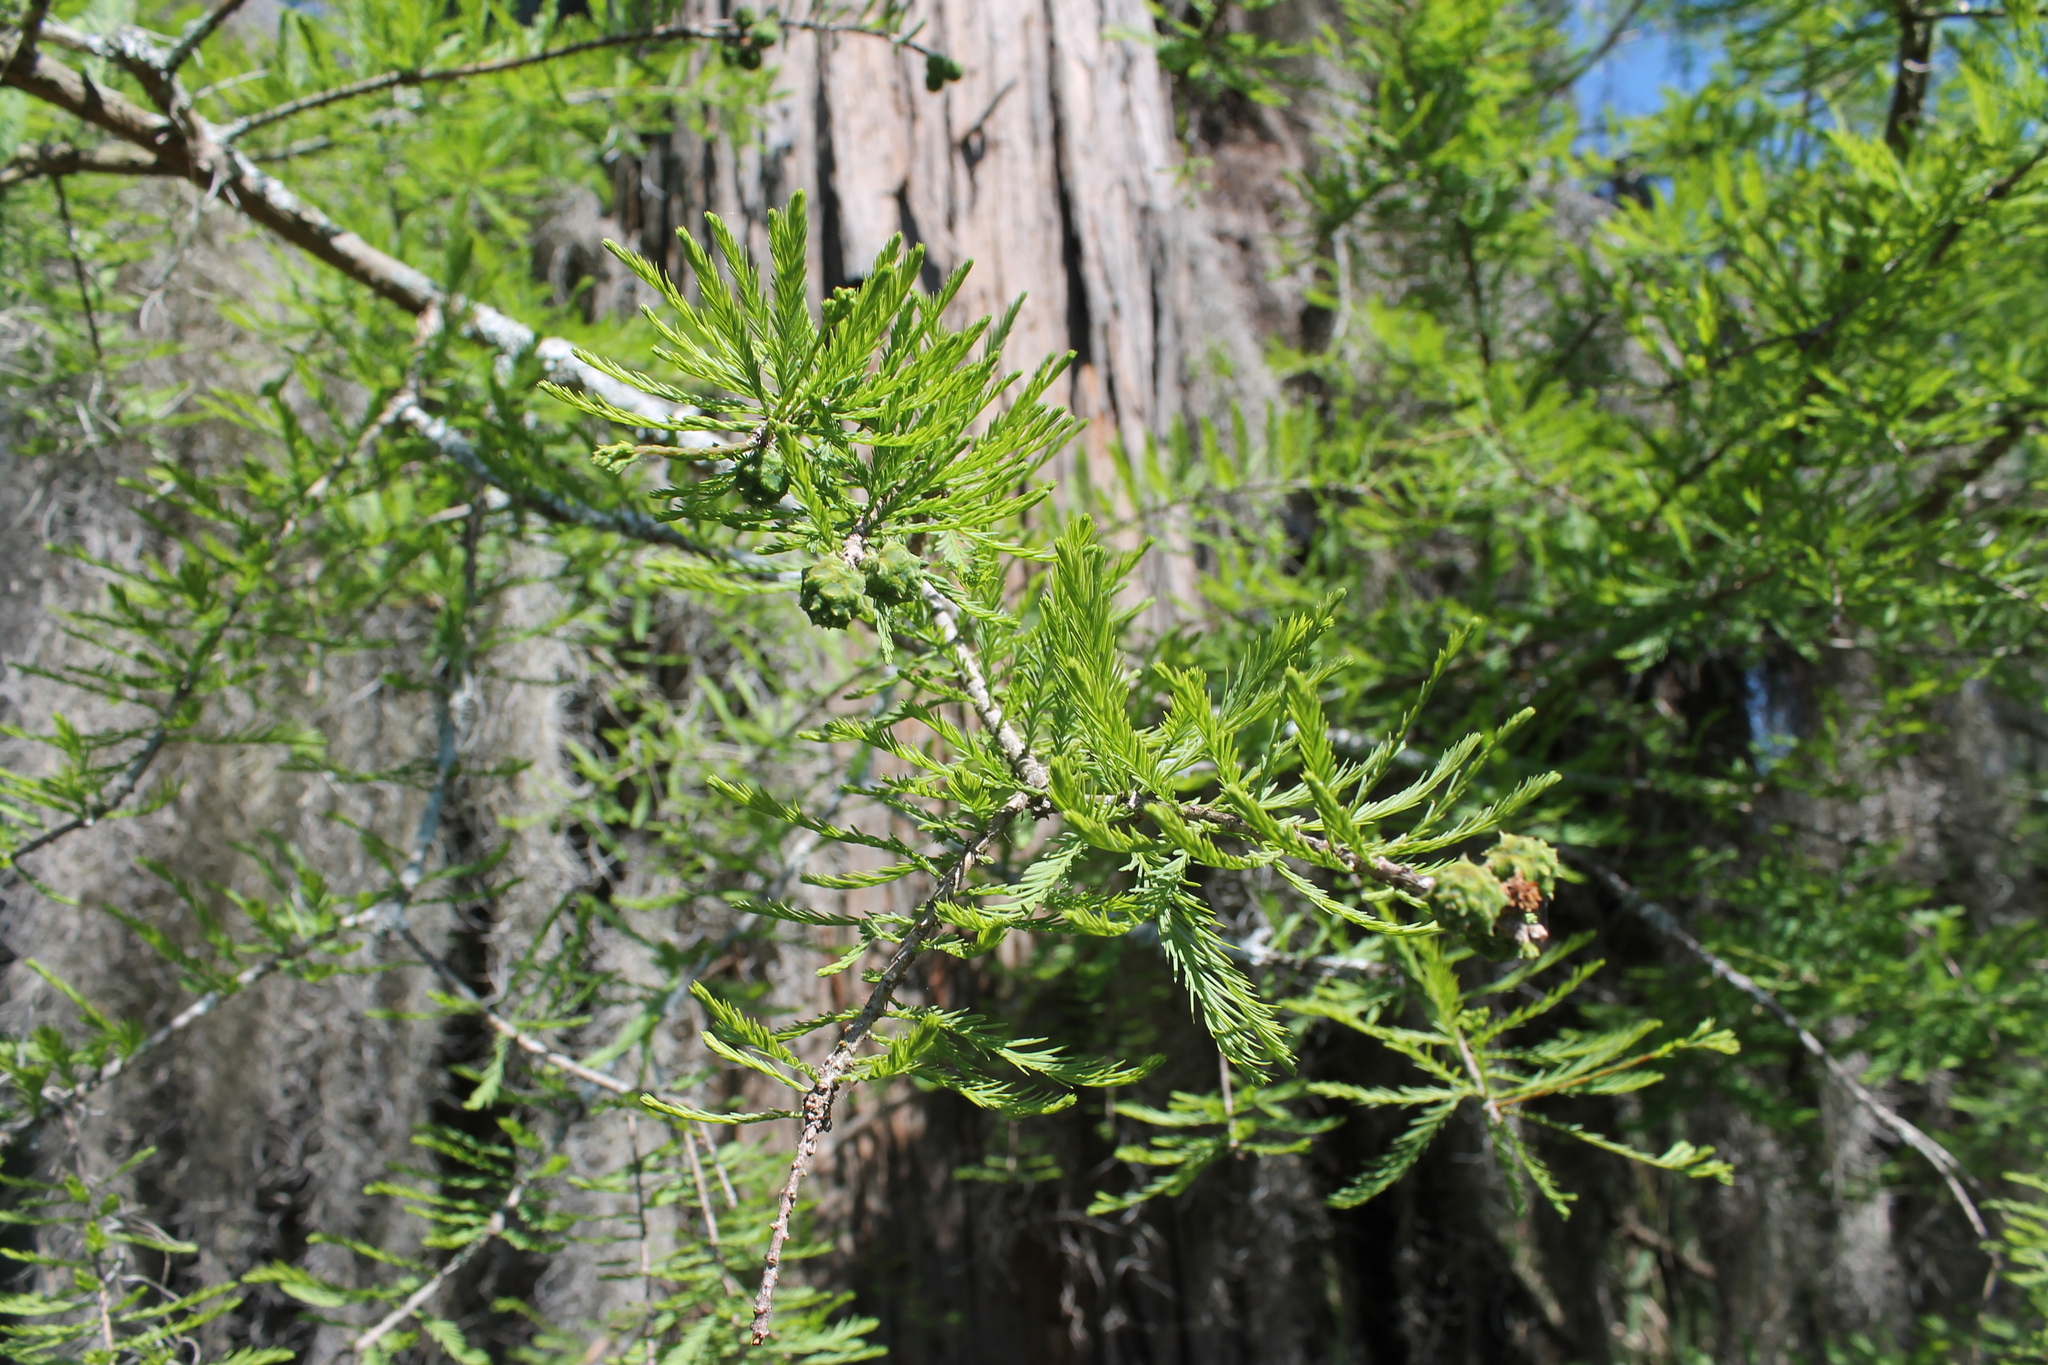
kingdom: Plantae
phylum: Tracheophyta
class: Pinopsida
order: Pinales
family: Cupressaceae
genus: Taxodium
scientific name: Taxodium distichum
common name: Bald cypress
